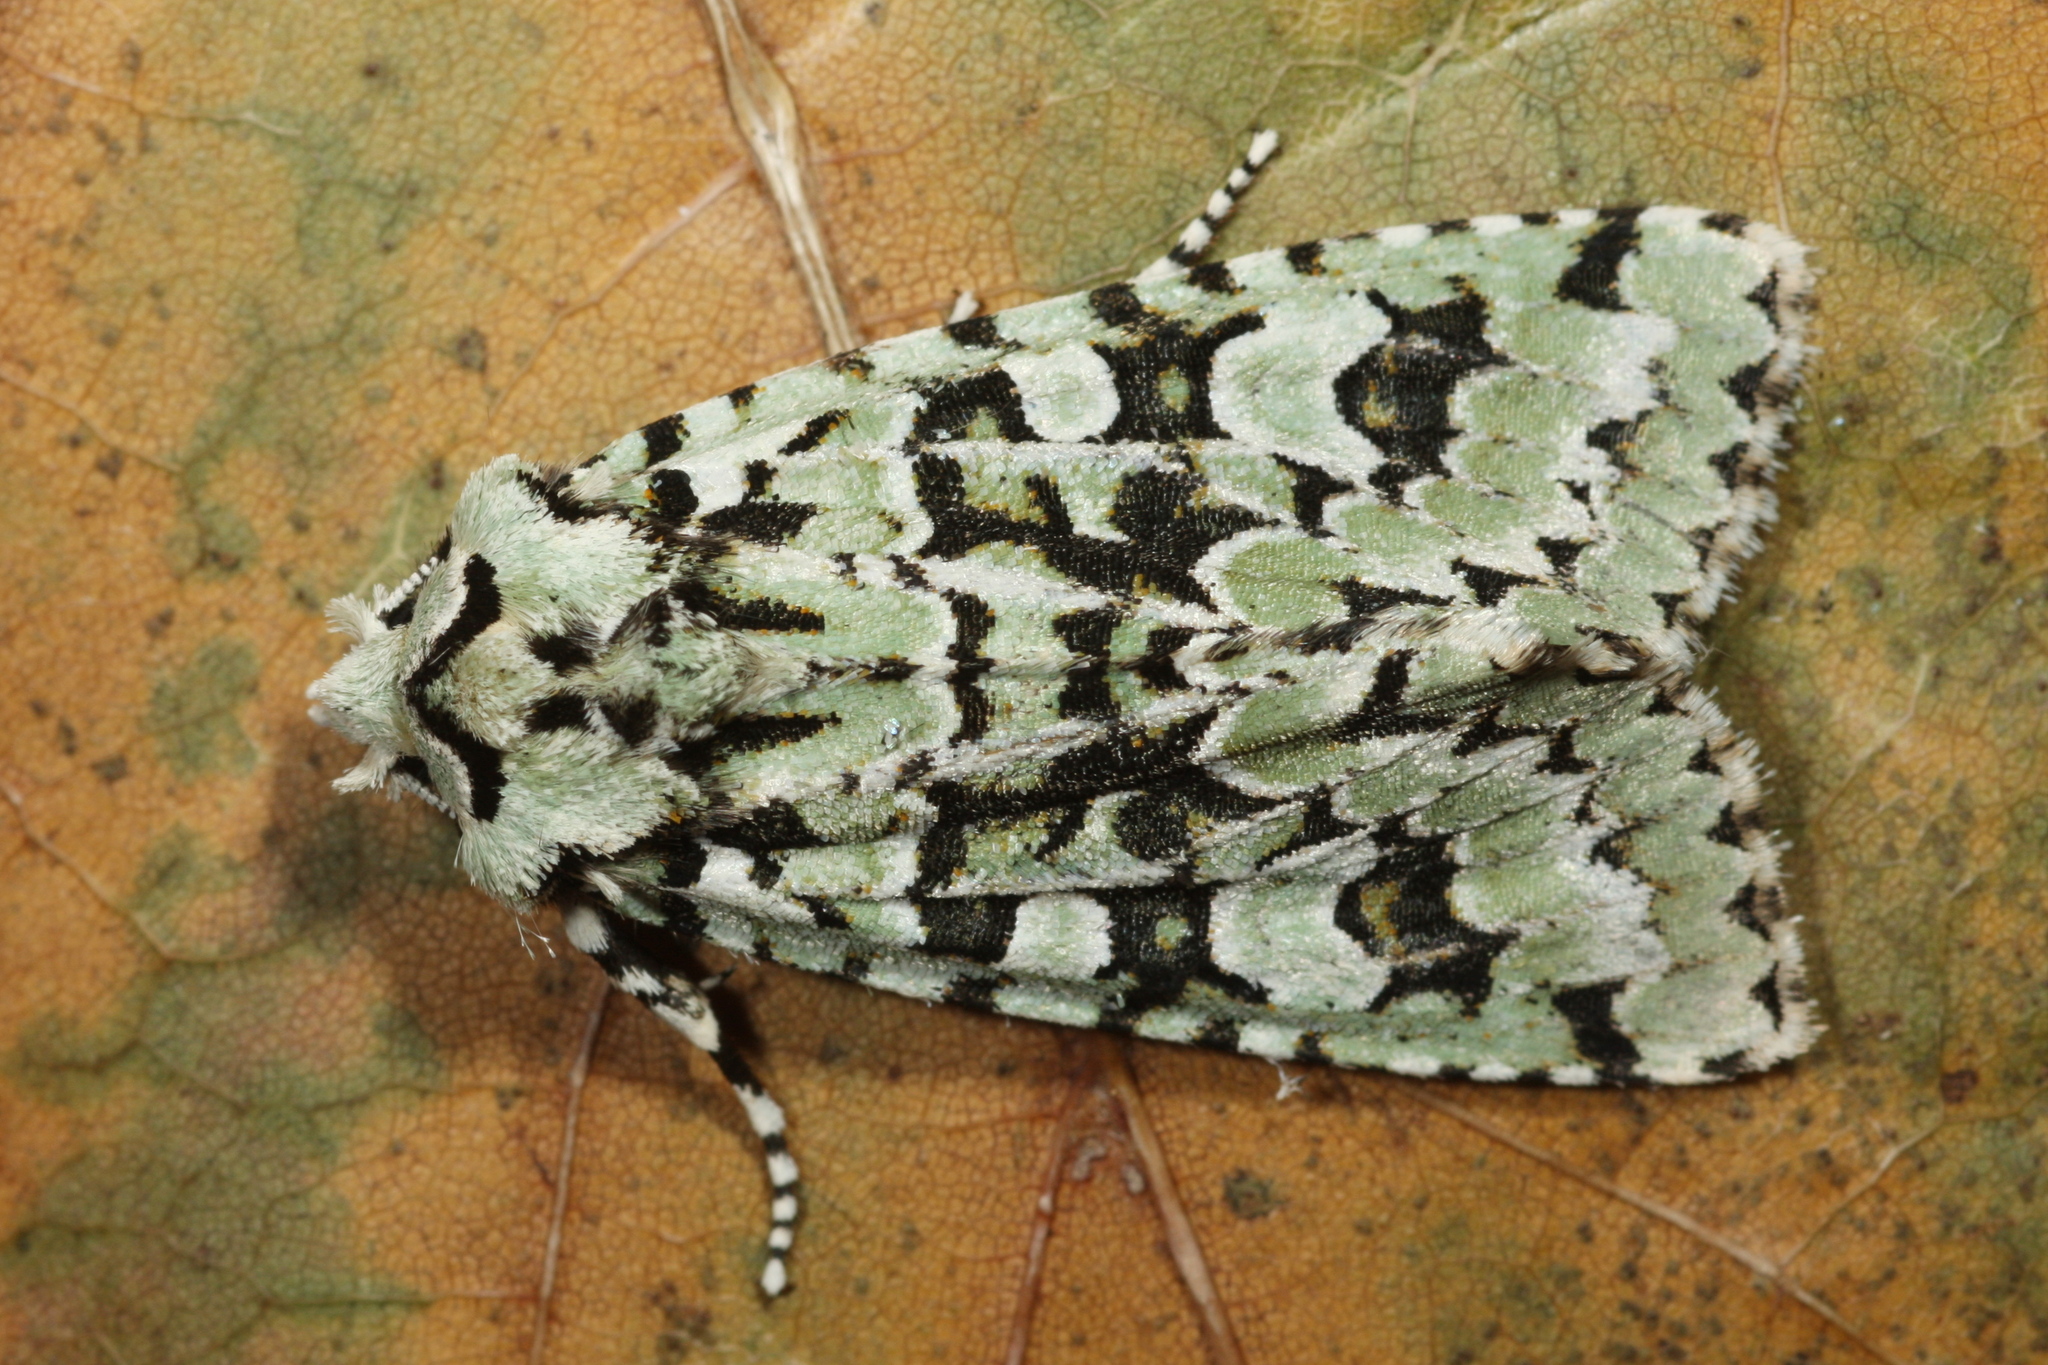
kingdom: Animalia
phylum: Arthropoda
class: Insecta
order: Lepidoptera
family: Noctuidae
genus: Griposia
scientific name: Griposia aprilina
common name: Merveille du jour
